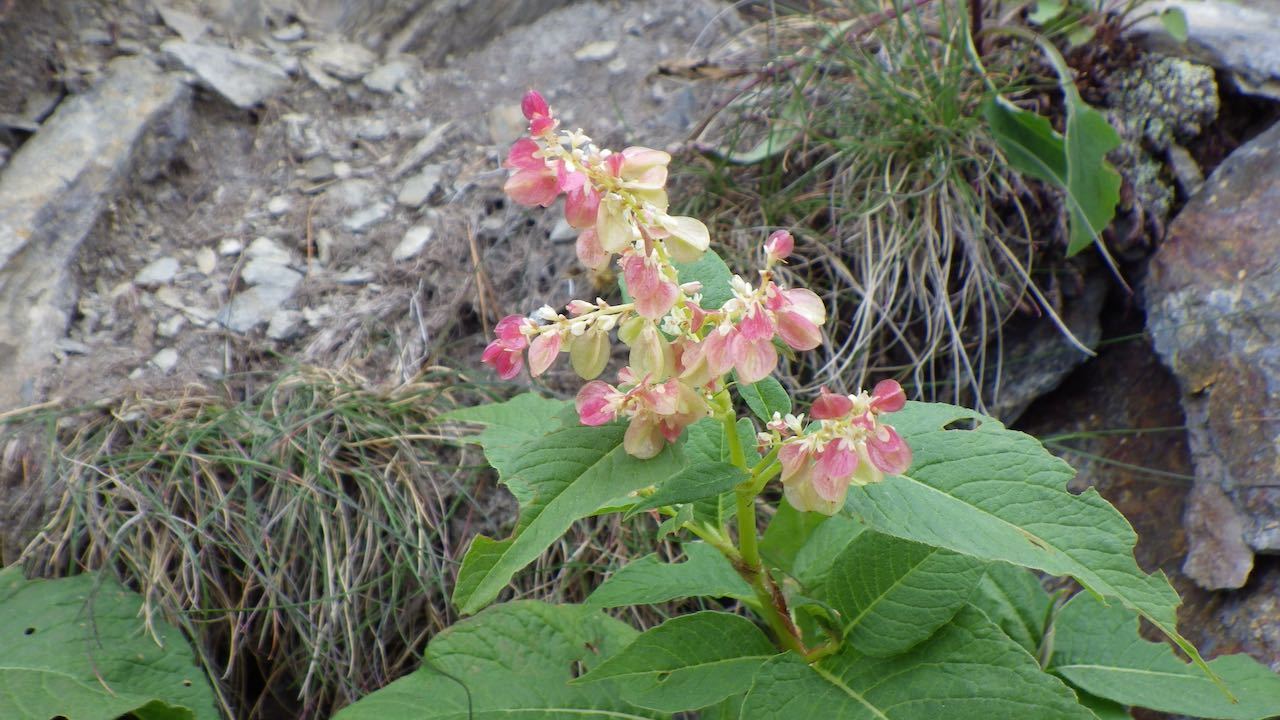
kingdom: Plantae
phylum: Tracheophyta
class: Magnoliopsida
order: Caryophyllales
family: Polygonaceae
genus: Koenigia
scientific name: Koenigia weyrichii
